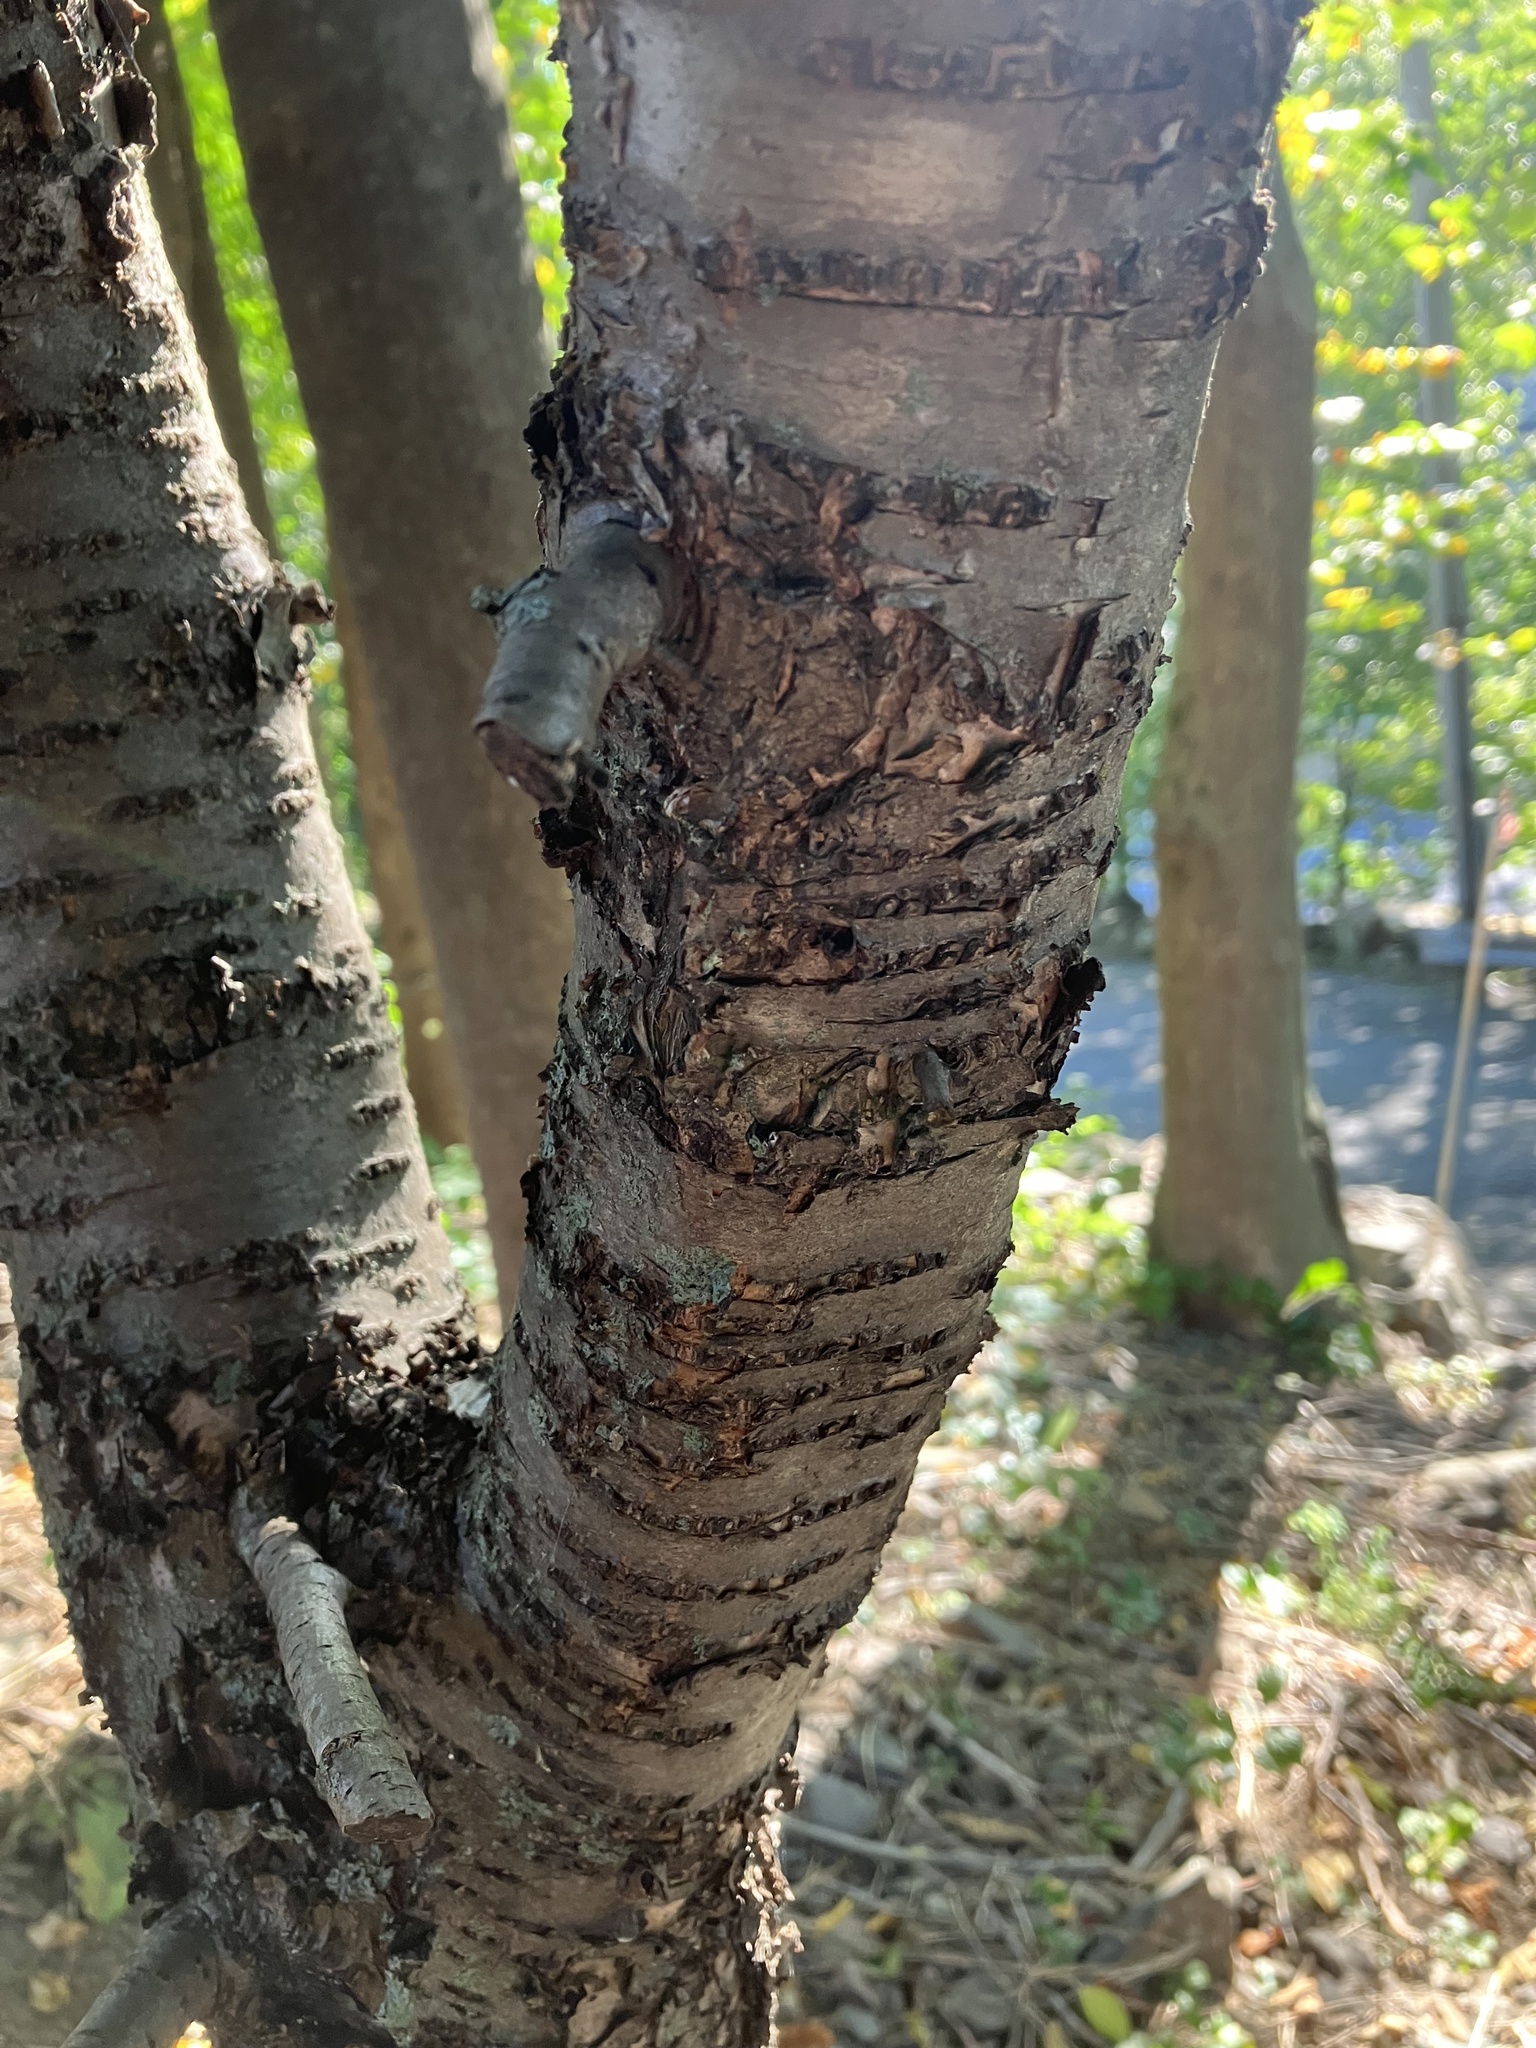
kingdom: Plantae
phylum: Tracheophyta
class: Magnoliopsida
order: Rosales
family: Rhamnaceae
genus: Rhamnus
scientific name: Rhamnus cathartica
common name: Common buckthorn
